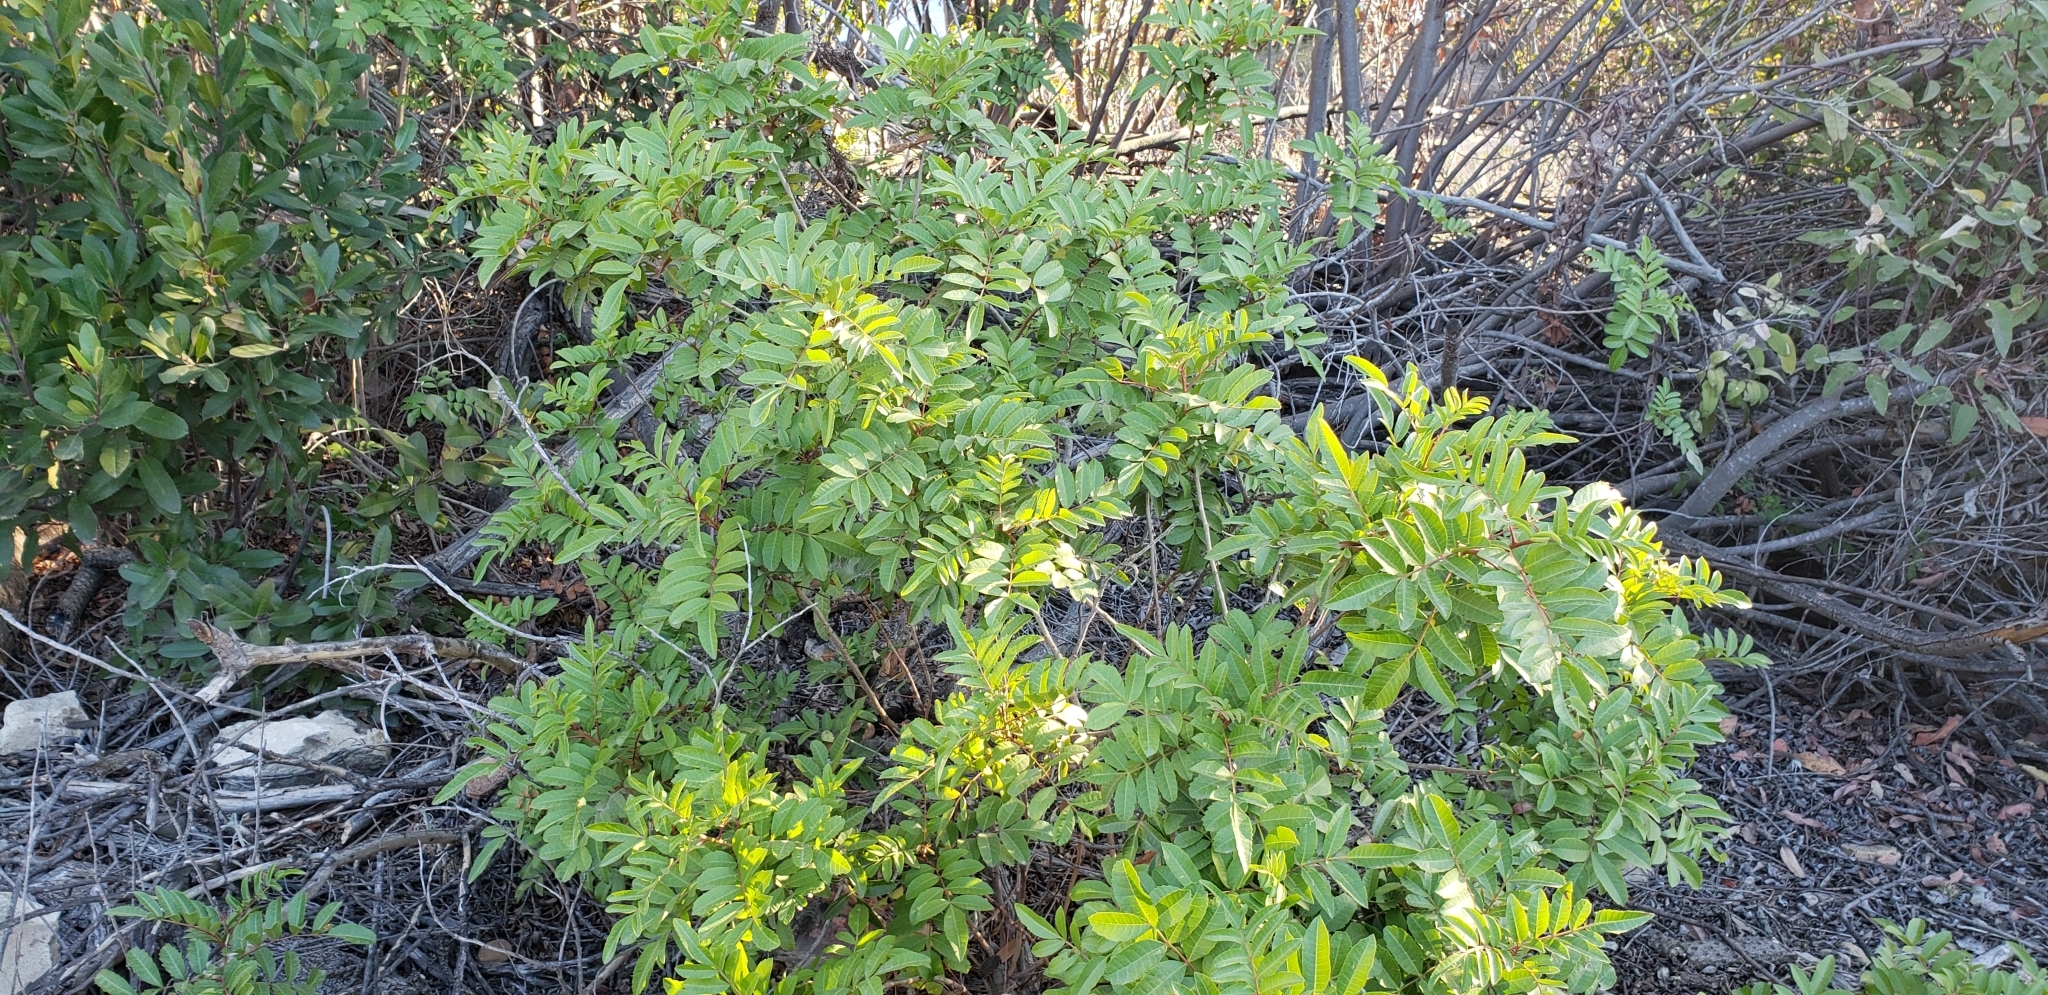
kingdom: Plantae
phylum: Tracheophyta
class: Magnoliopsida
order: Sapindales
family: Anacardiaceae
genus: Schinus
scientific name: Schinus terebinthifolia
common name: Brazilian peppertree
